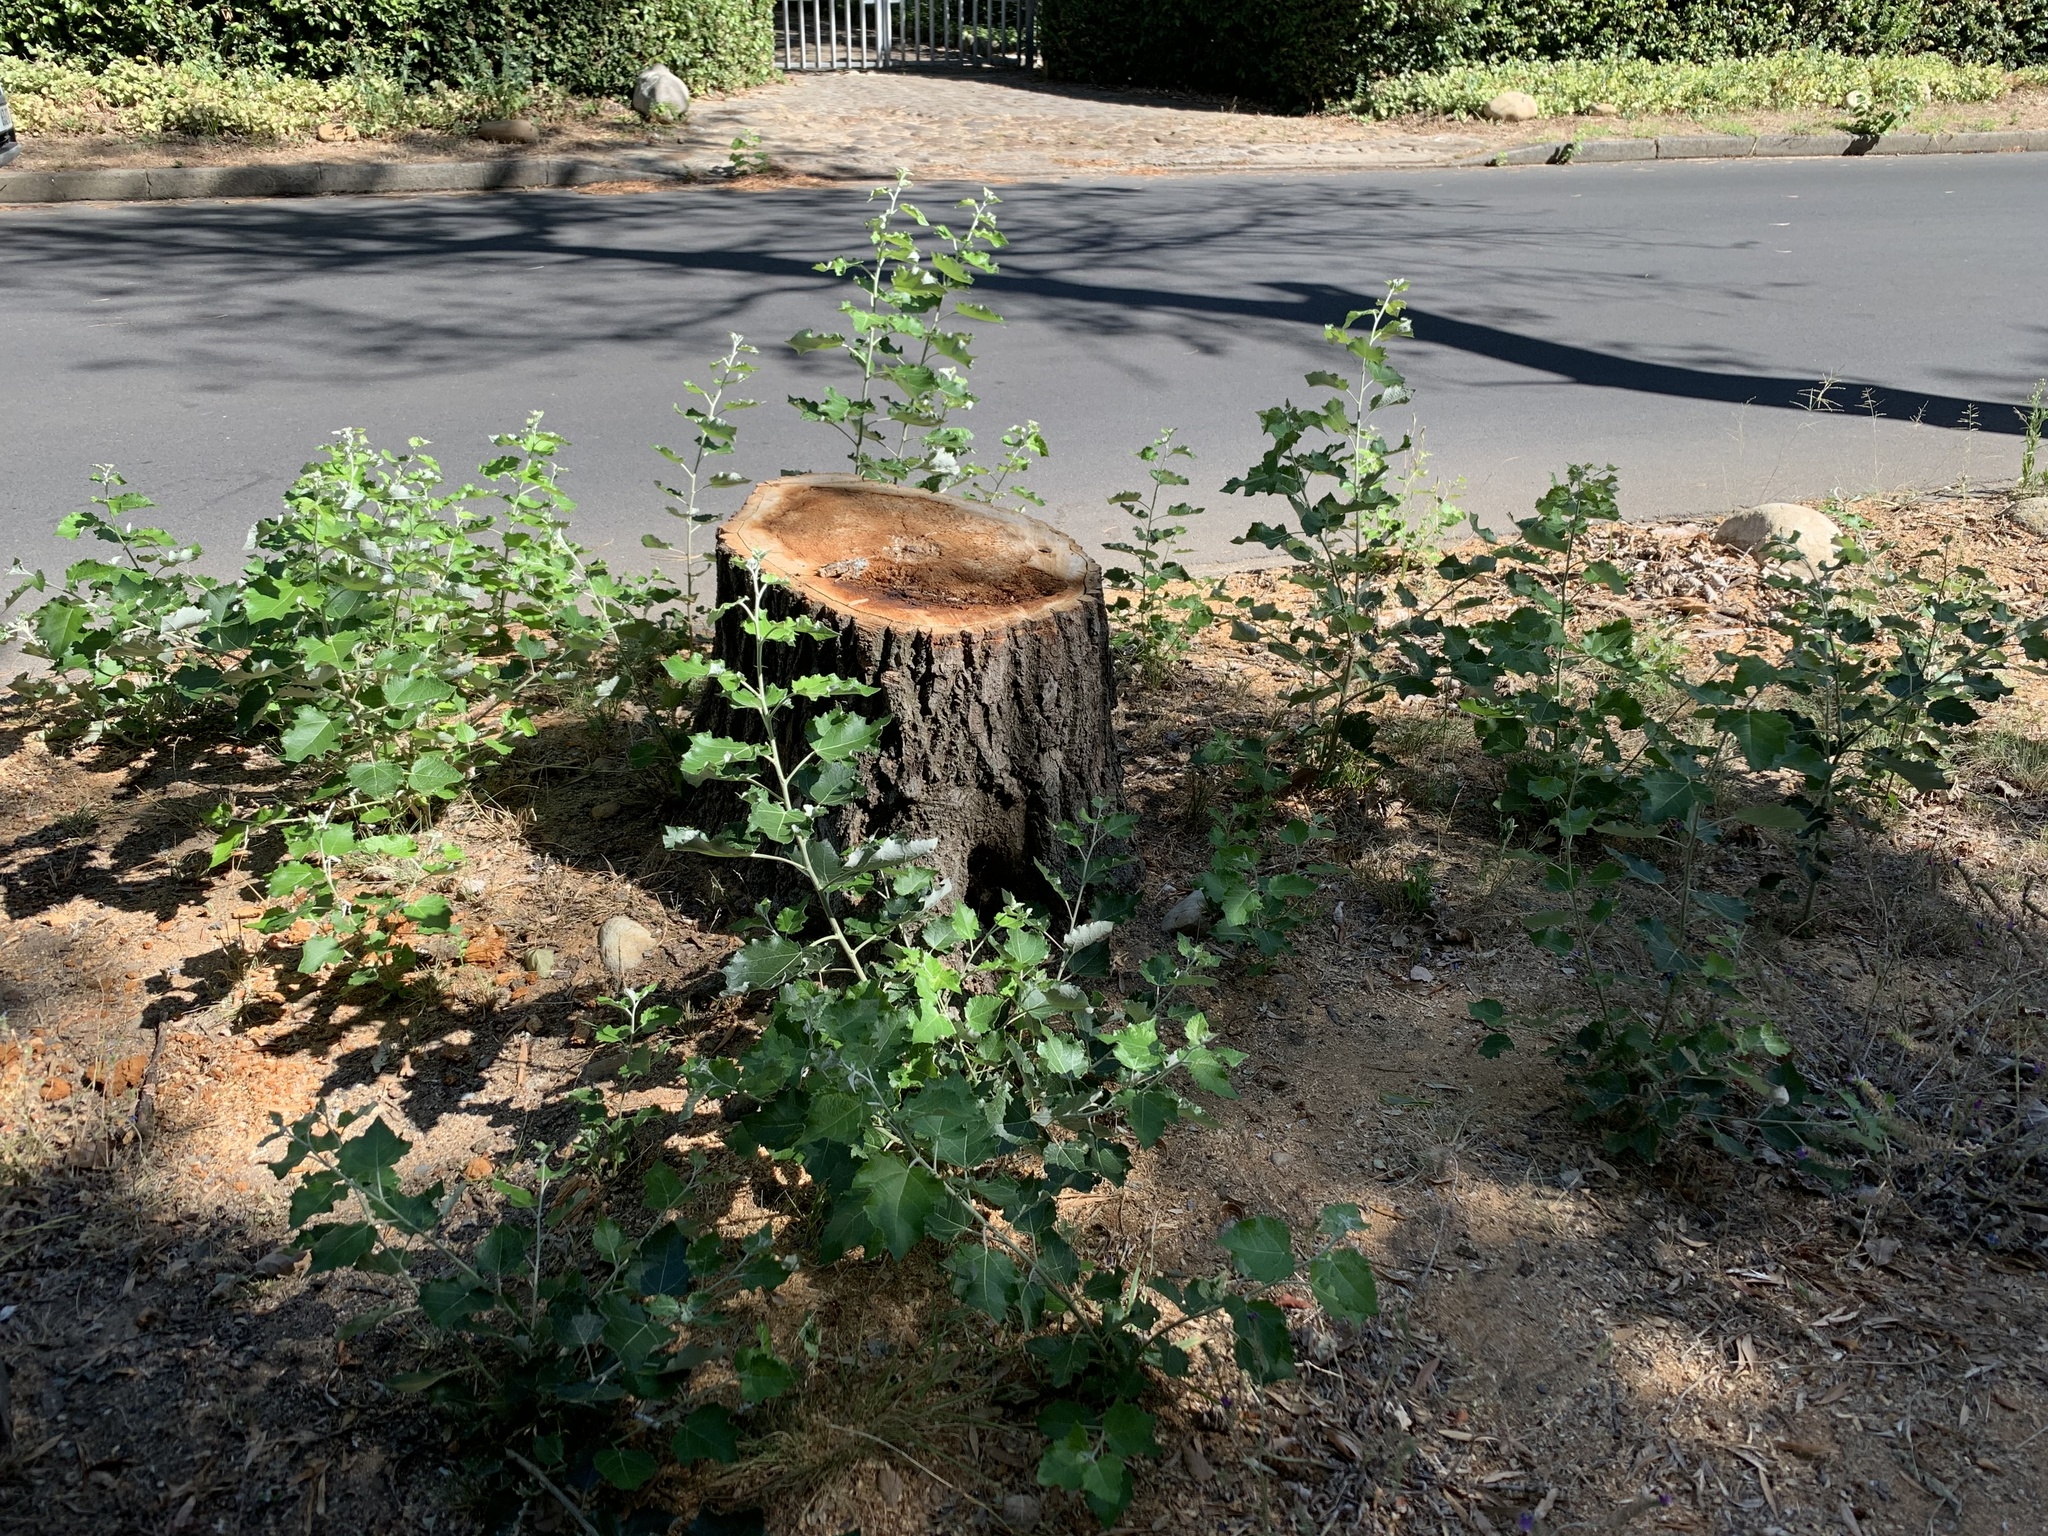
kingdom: Plantae
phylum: Tracheophyta
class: Magnoliopsida
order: Malpighiales
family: Salicaceae
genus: Populus
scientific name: Populus canescens
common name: Gray poplar
